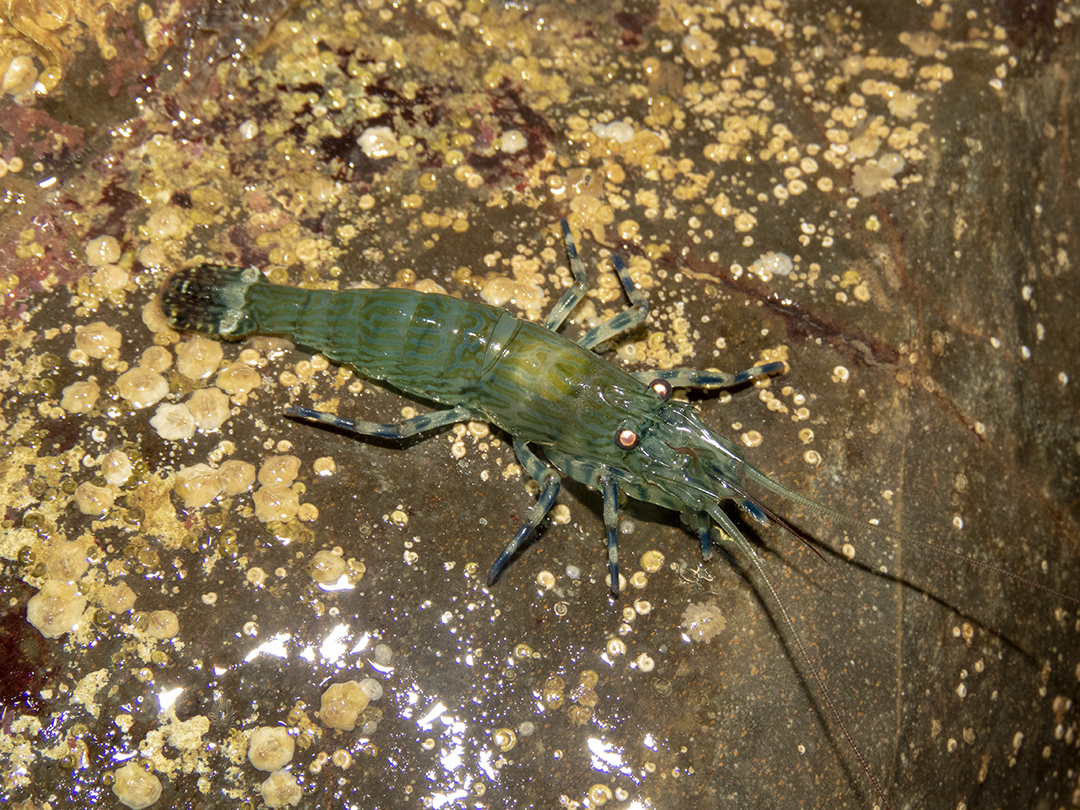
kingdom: Animalia
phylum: Arthropoda
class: Malacostraca
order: Decapoda
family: Hippolytidae
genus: Alope
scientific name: Alope spinifrons
